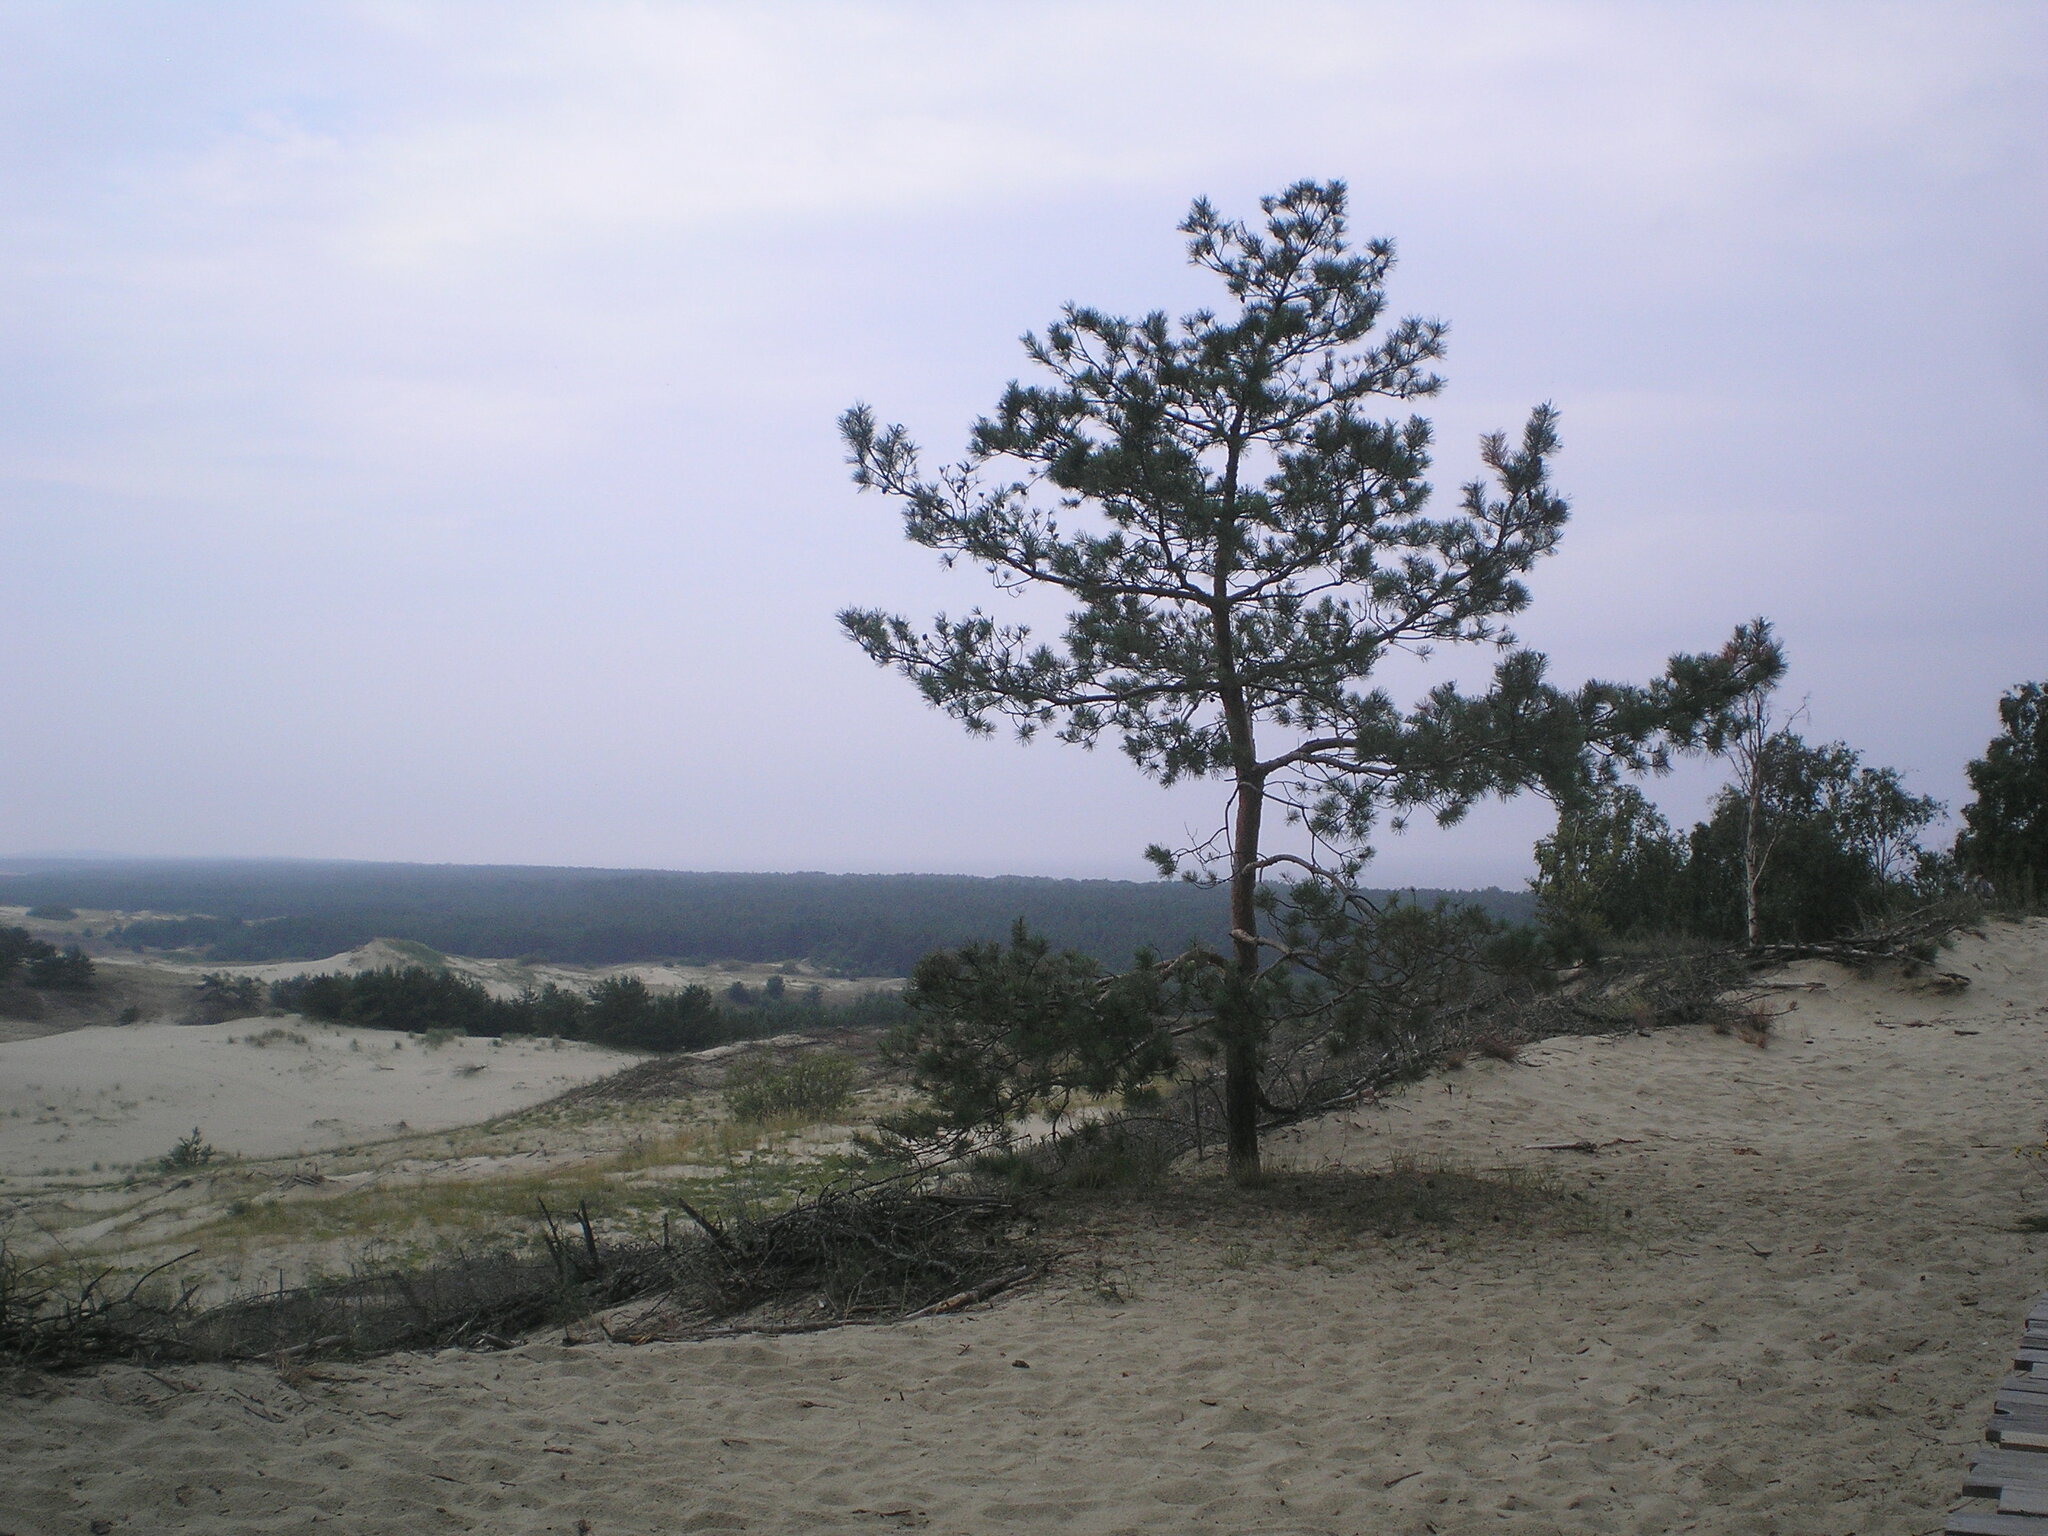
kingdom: Plantae
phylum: Tracheophyta
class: Pinopsida
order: Pinales
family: Pinaceae
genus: Pinus
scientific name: Pinus sylvestris
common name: Scots pine
